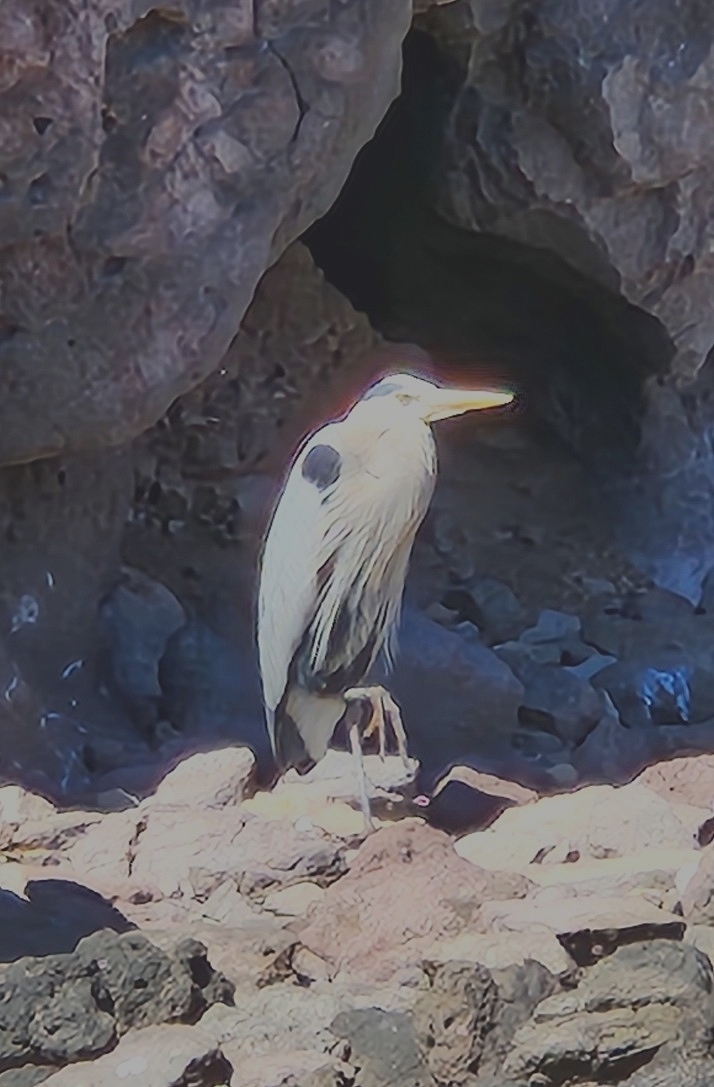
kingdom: Animalia
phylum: Chordata
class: Aves
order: Pelecaniformes
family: Ardeidae
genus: Ardea
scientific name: Ardea herodias
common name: Great blue heron
